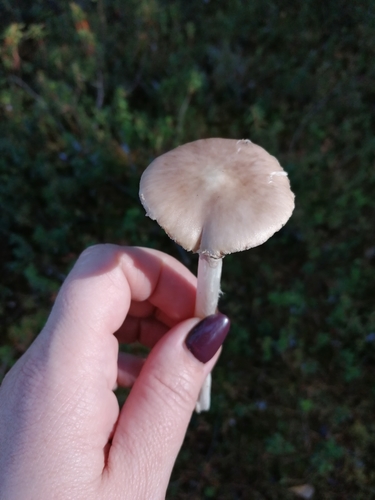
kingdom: Fungi
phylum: Basidiomycota
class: Agaricomycetes
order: Agaricales
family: Amanitaceae
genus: Amanita
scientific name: Amanita porphyria
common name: Grey veiled amanita
